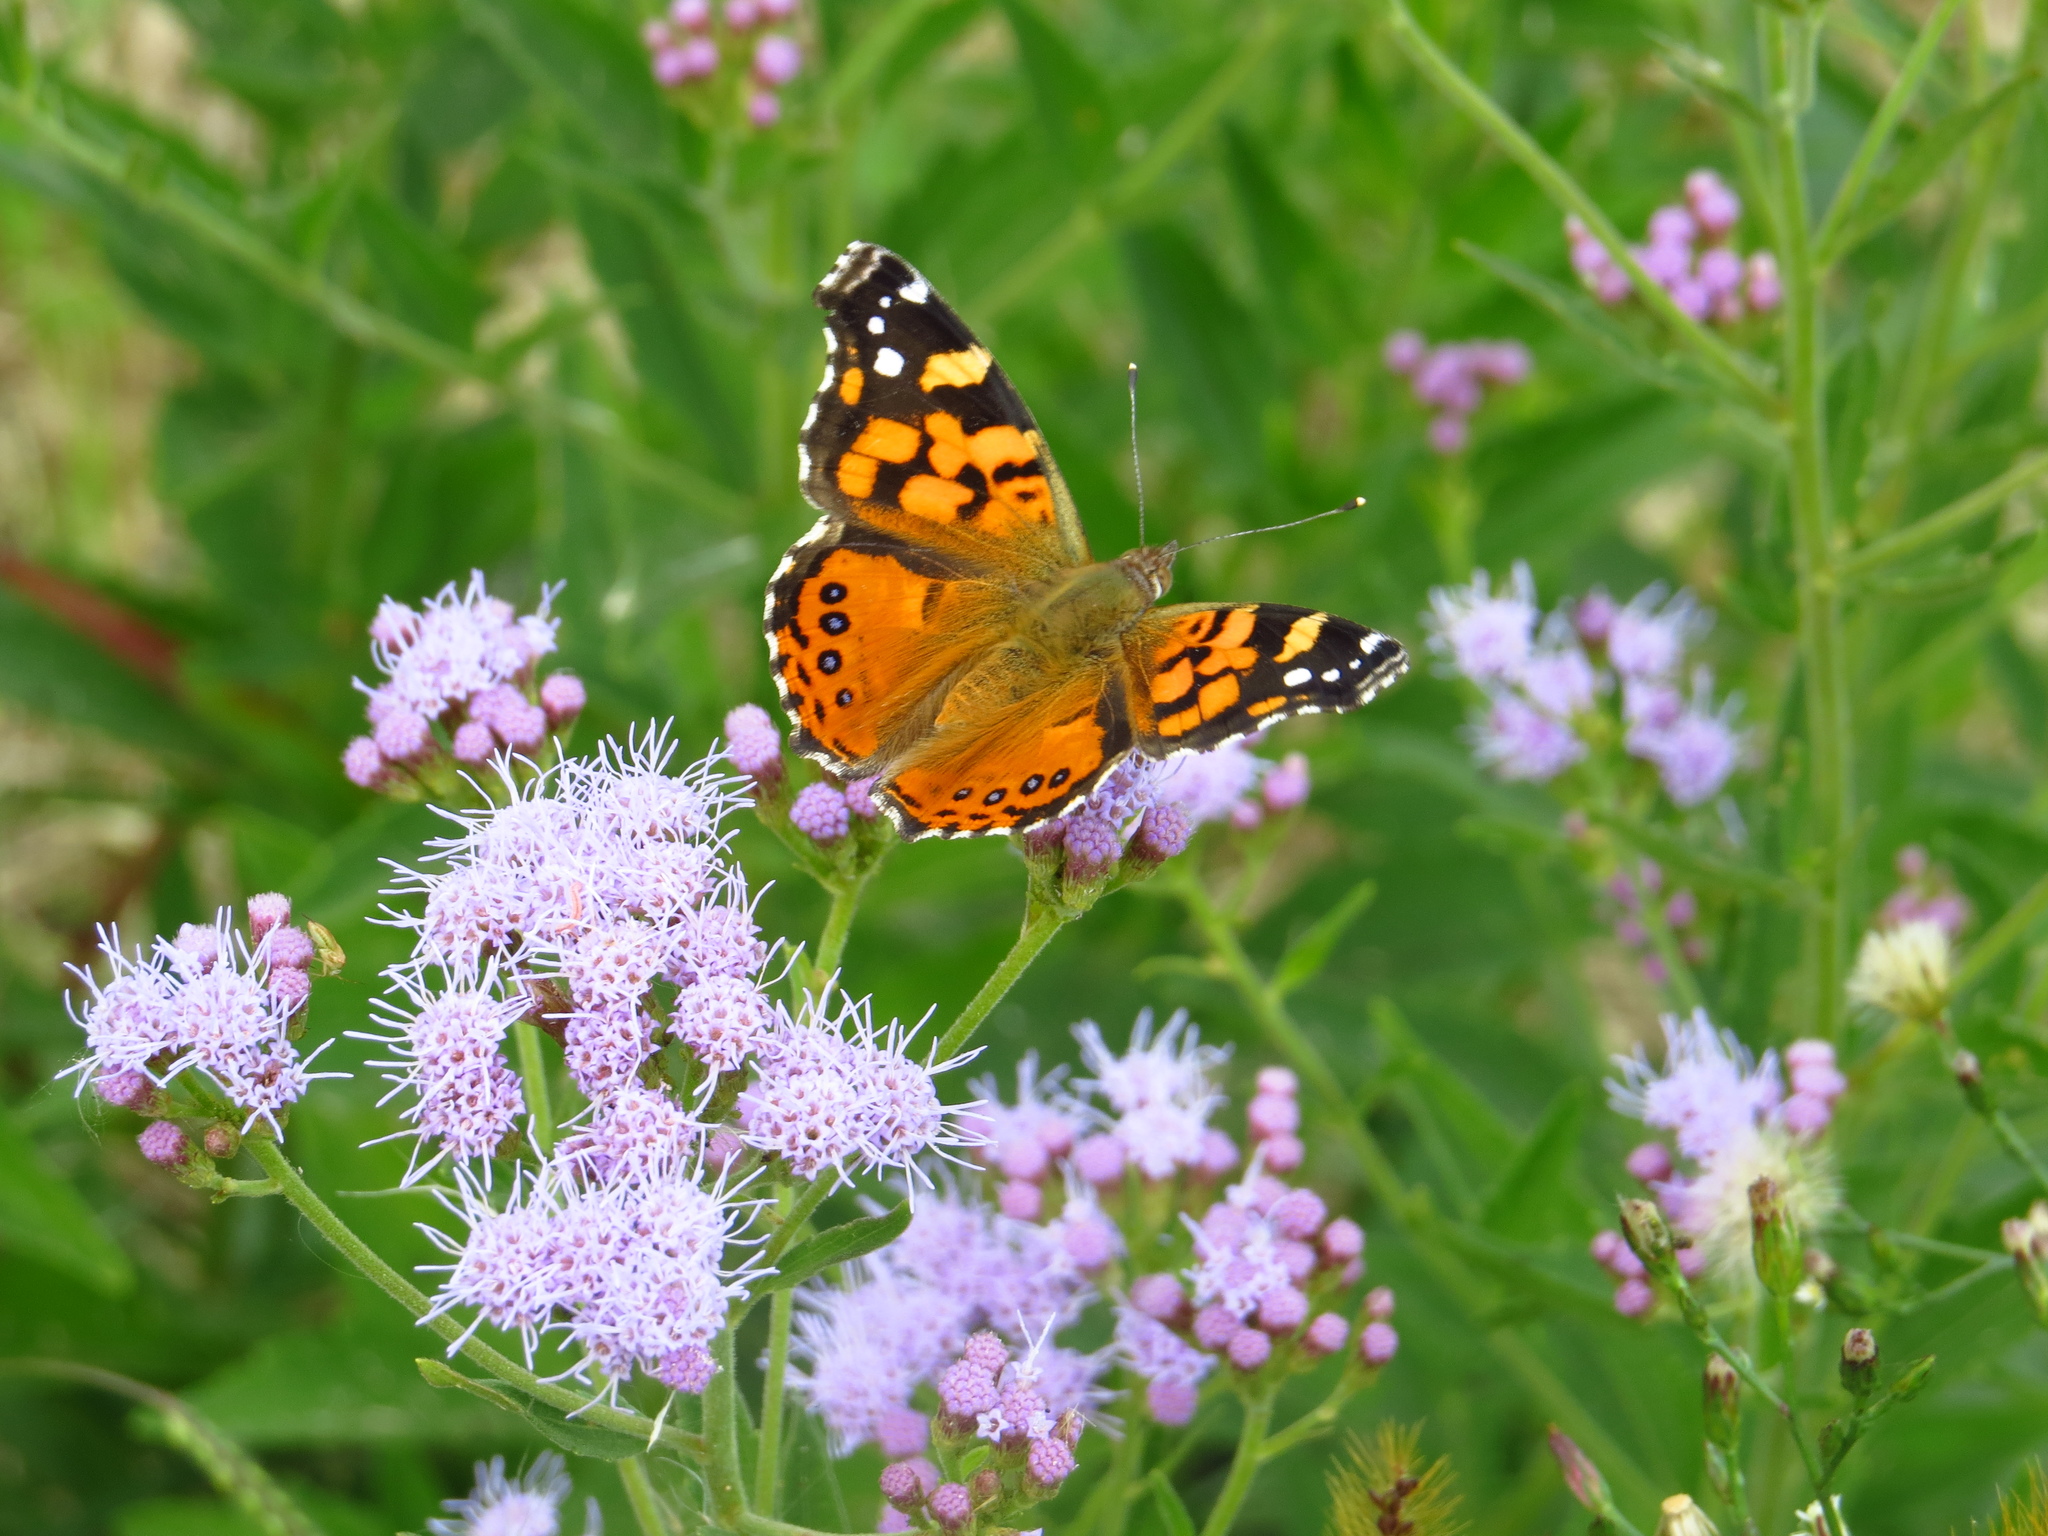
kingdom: Animalia
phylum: Arthropoda
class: Insecta
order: Lepidoptera
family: Nymphalidae
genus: Vanessa
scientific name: Vanessa carye
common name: Subtropical lady
